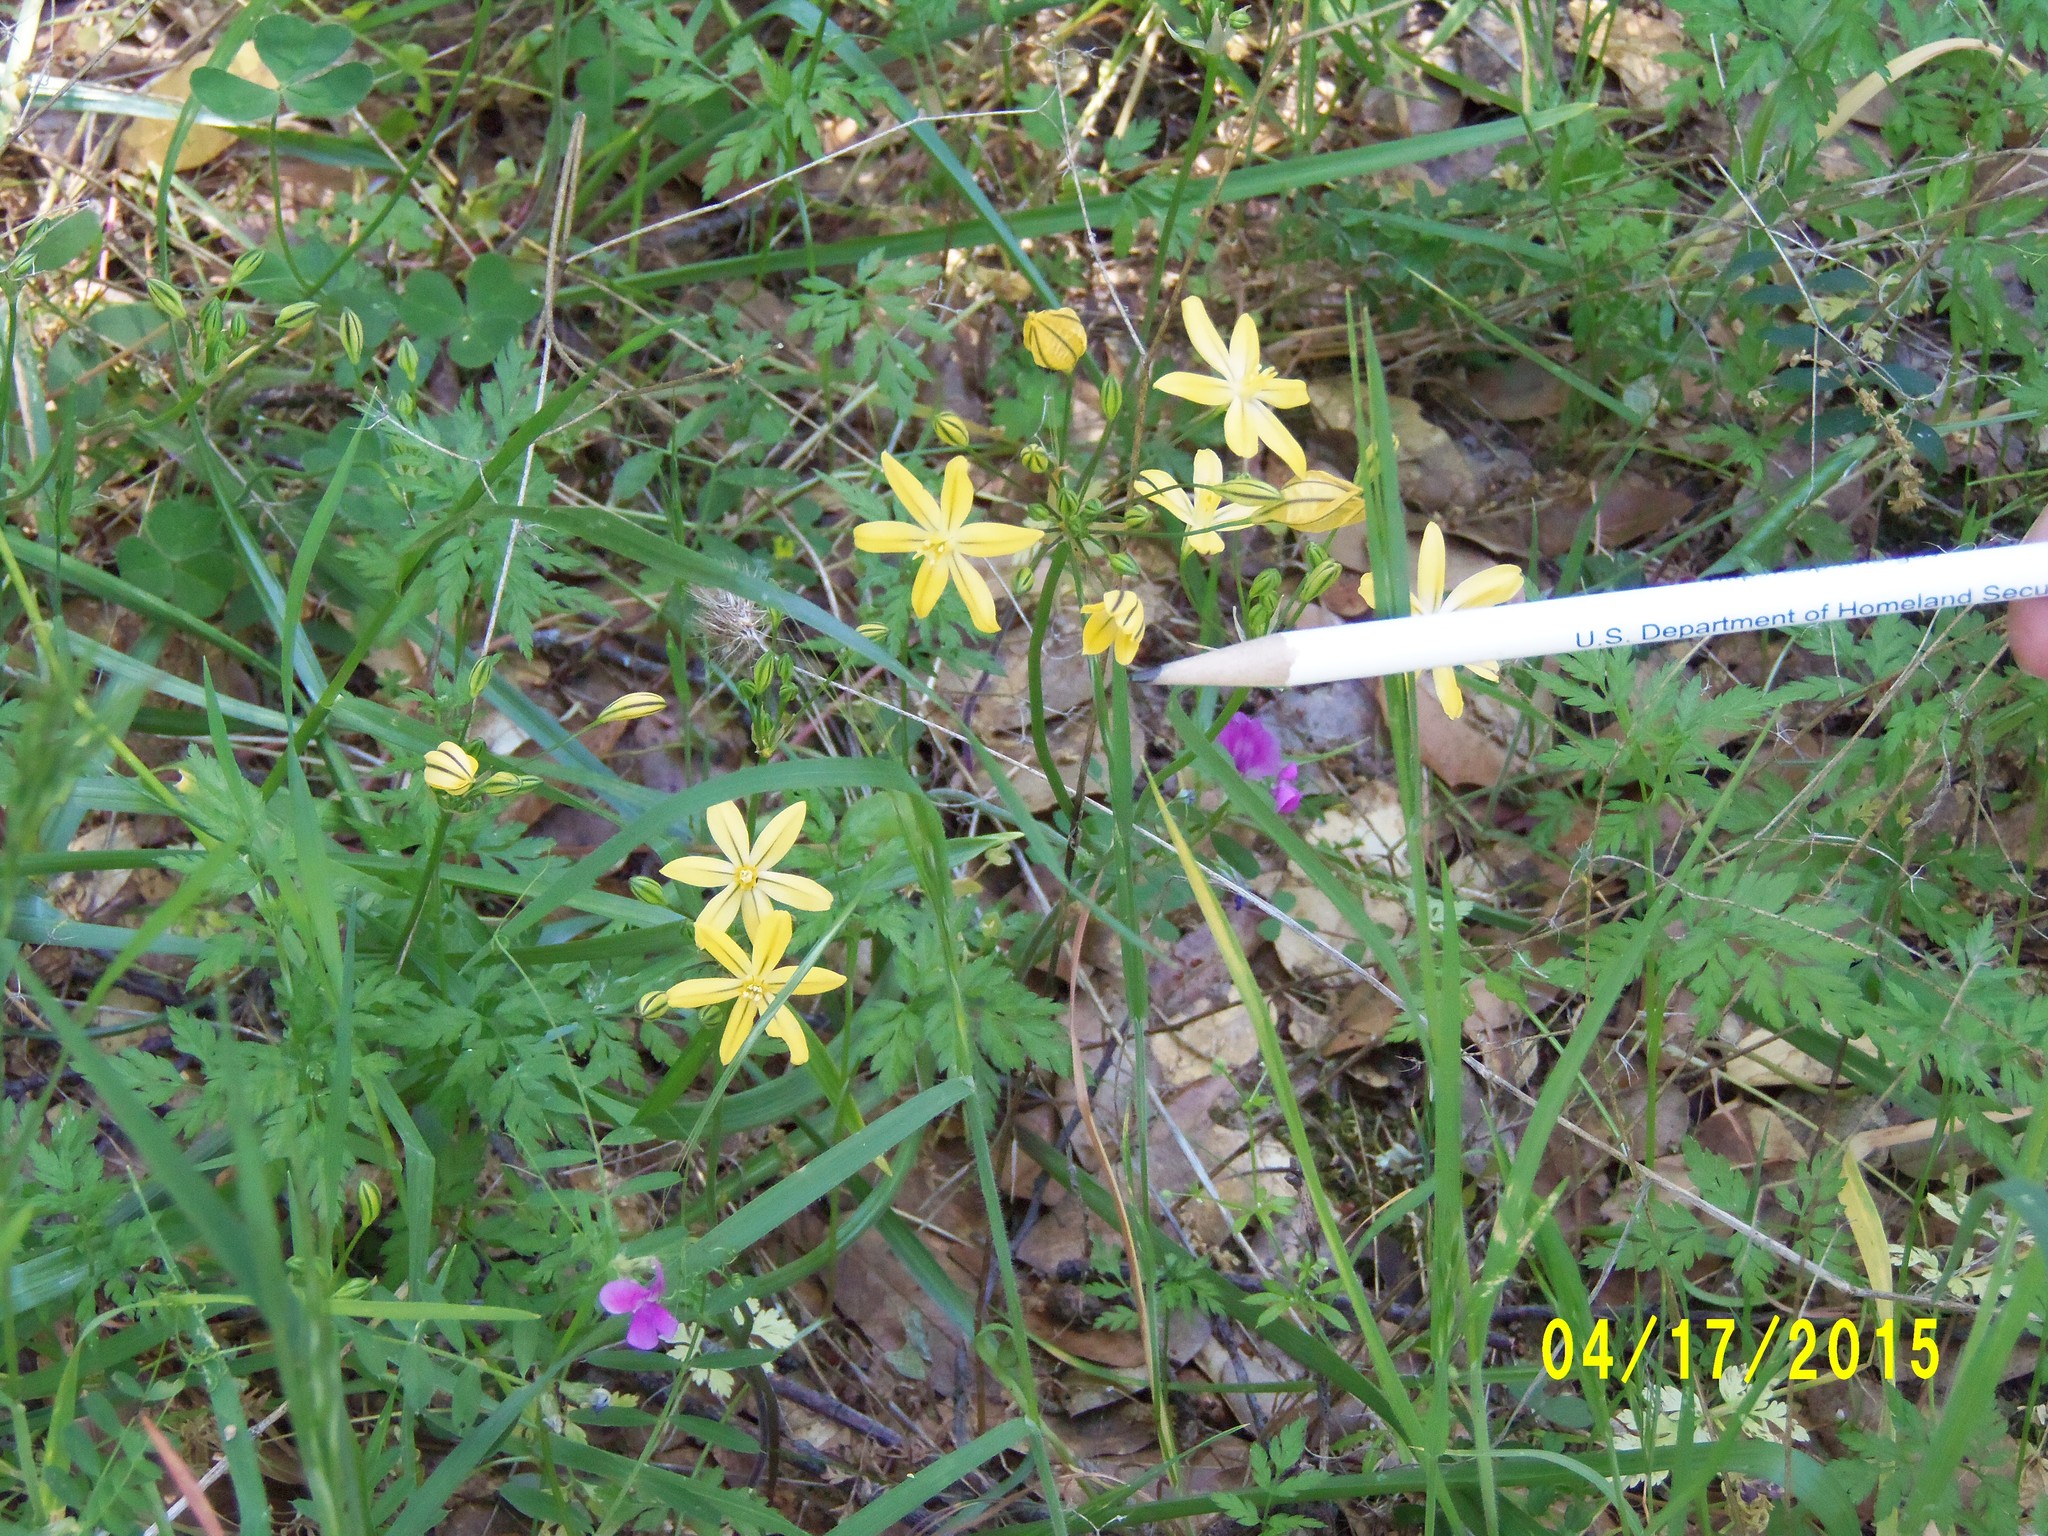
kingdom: Plantae
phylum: Tracheophyta
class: Liliopsida
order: Asparagales
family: Asparagaceae
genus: Triteleia
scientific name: Triteleia ixioides
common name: Yellow-brodiaea
